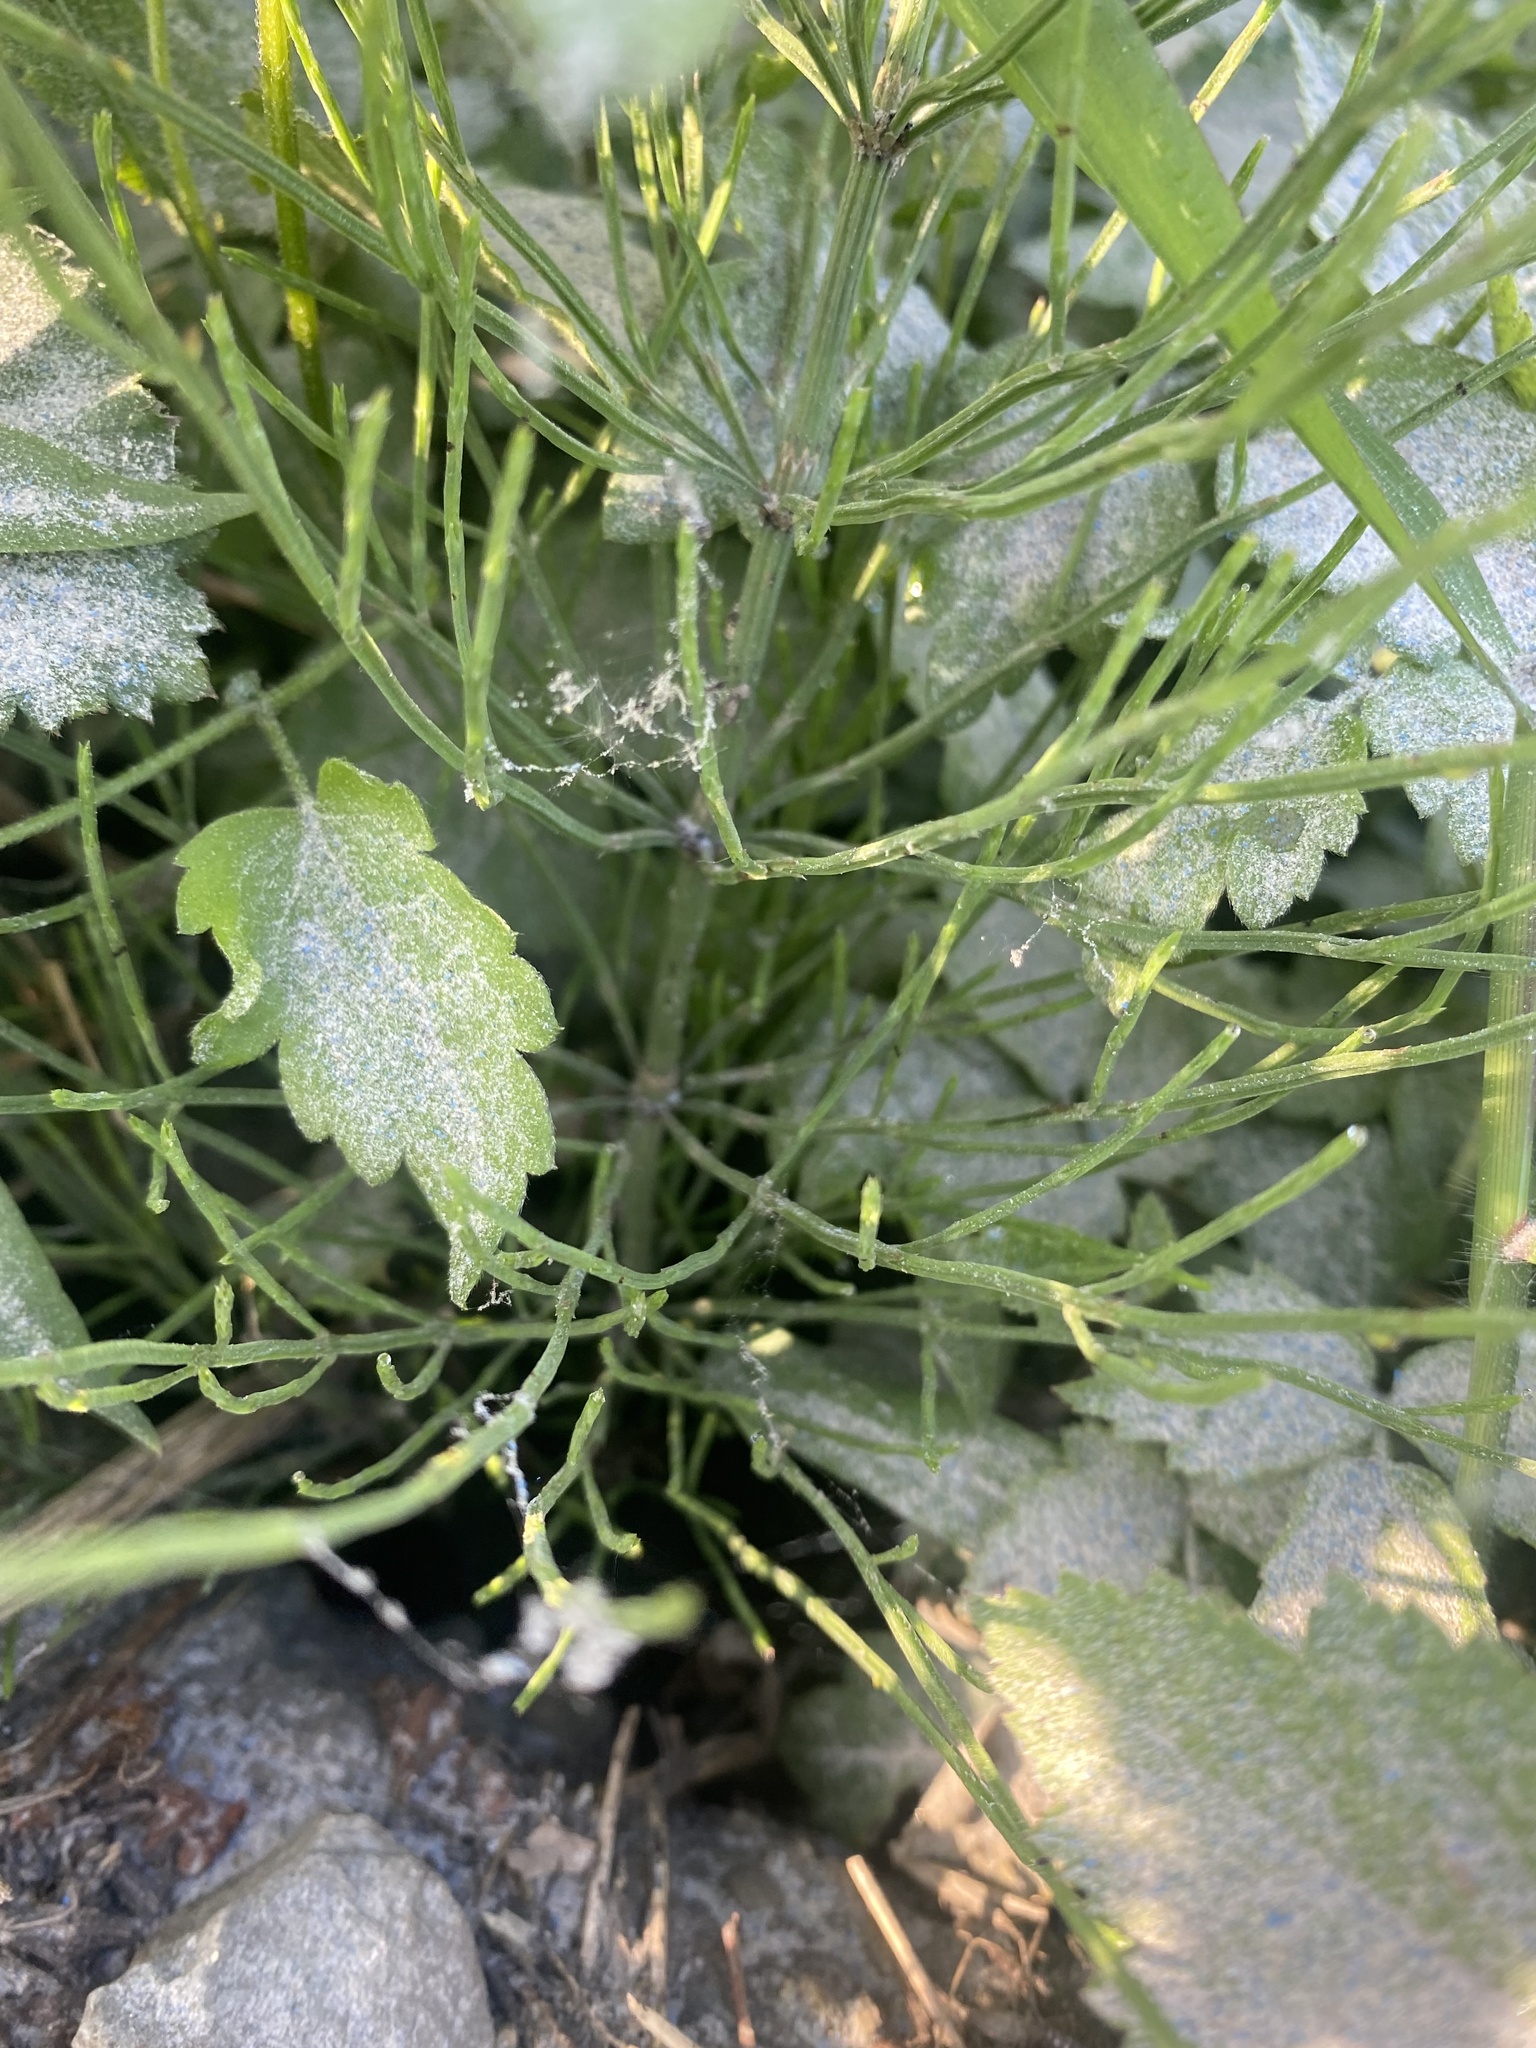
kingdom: Plantae
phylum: Tracheophyta
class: Polypodiopsida
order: Equisetales
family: Equisetaceae
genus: Equisetum
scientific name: Equisetum arvense
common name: Field horsetail
